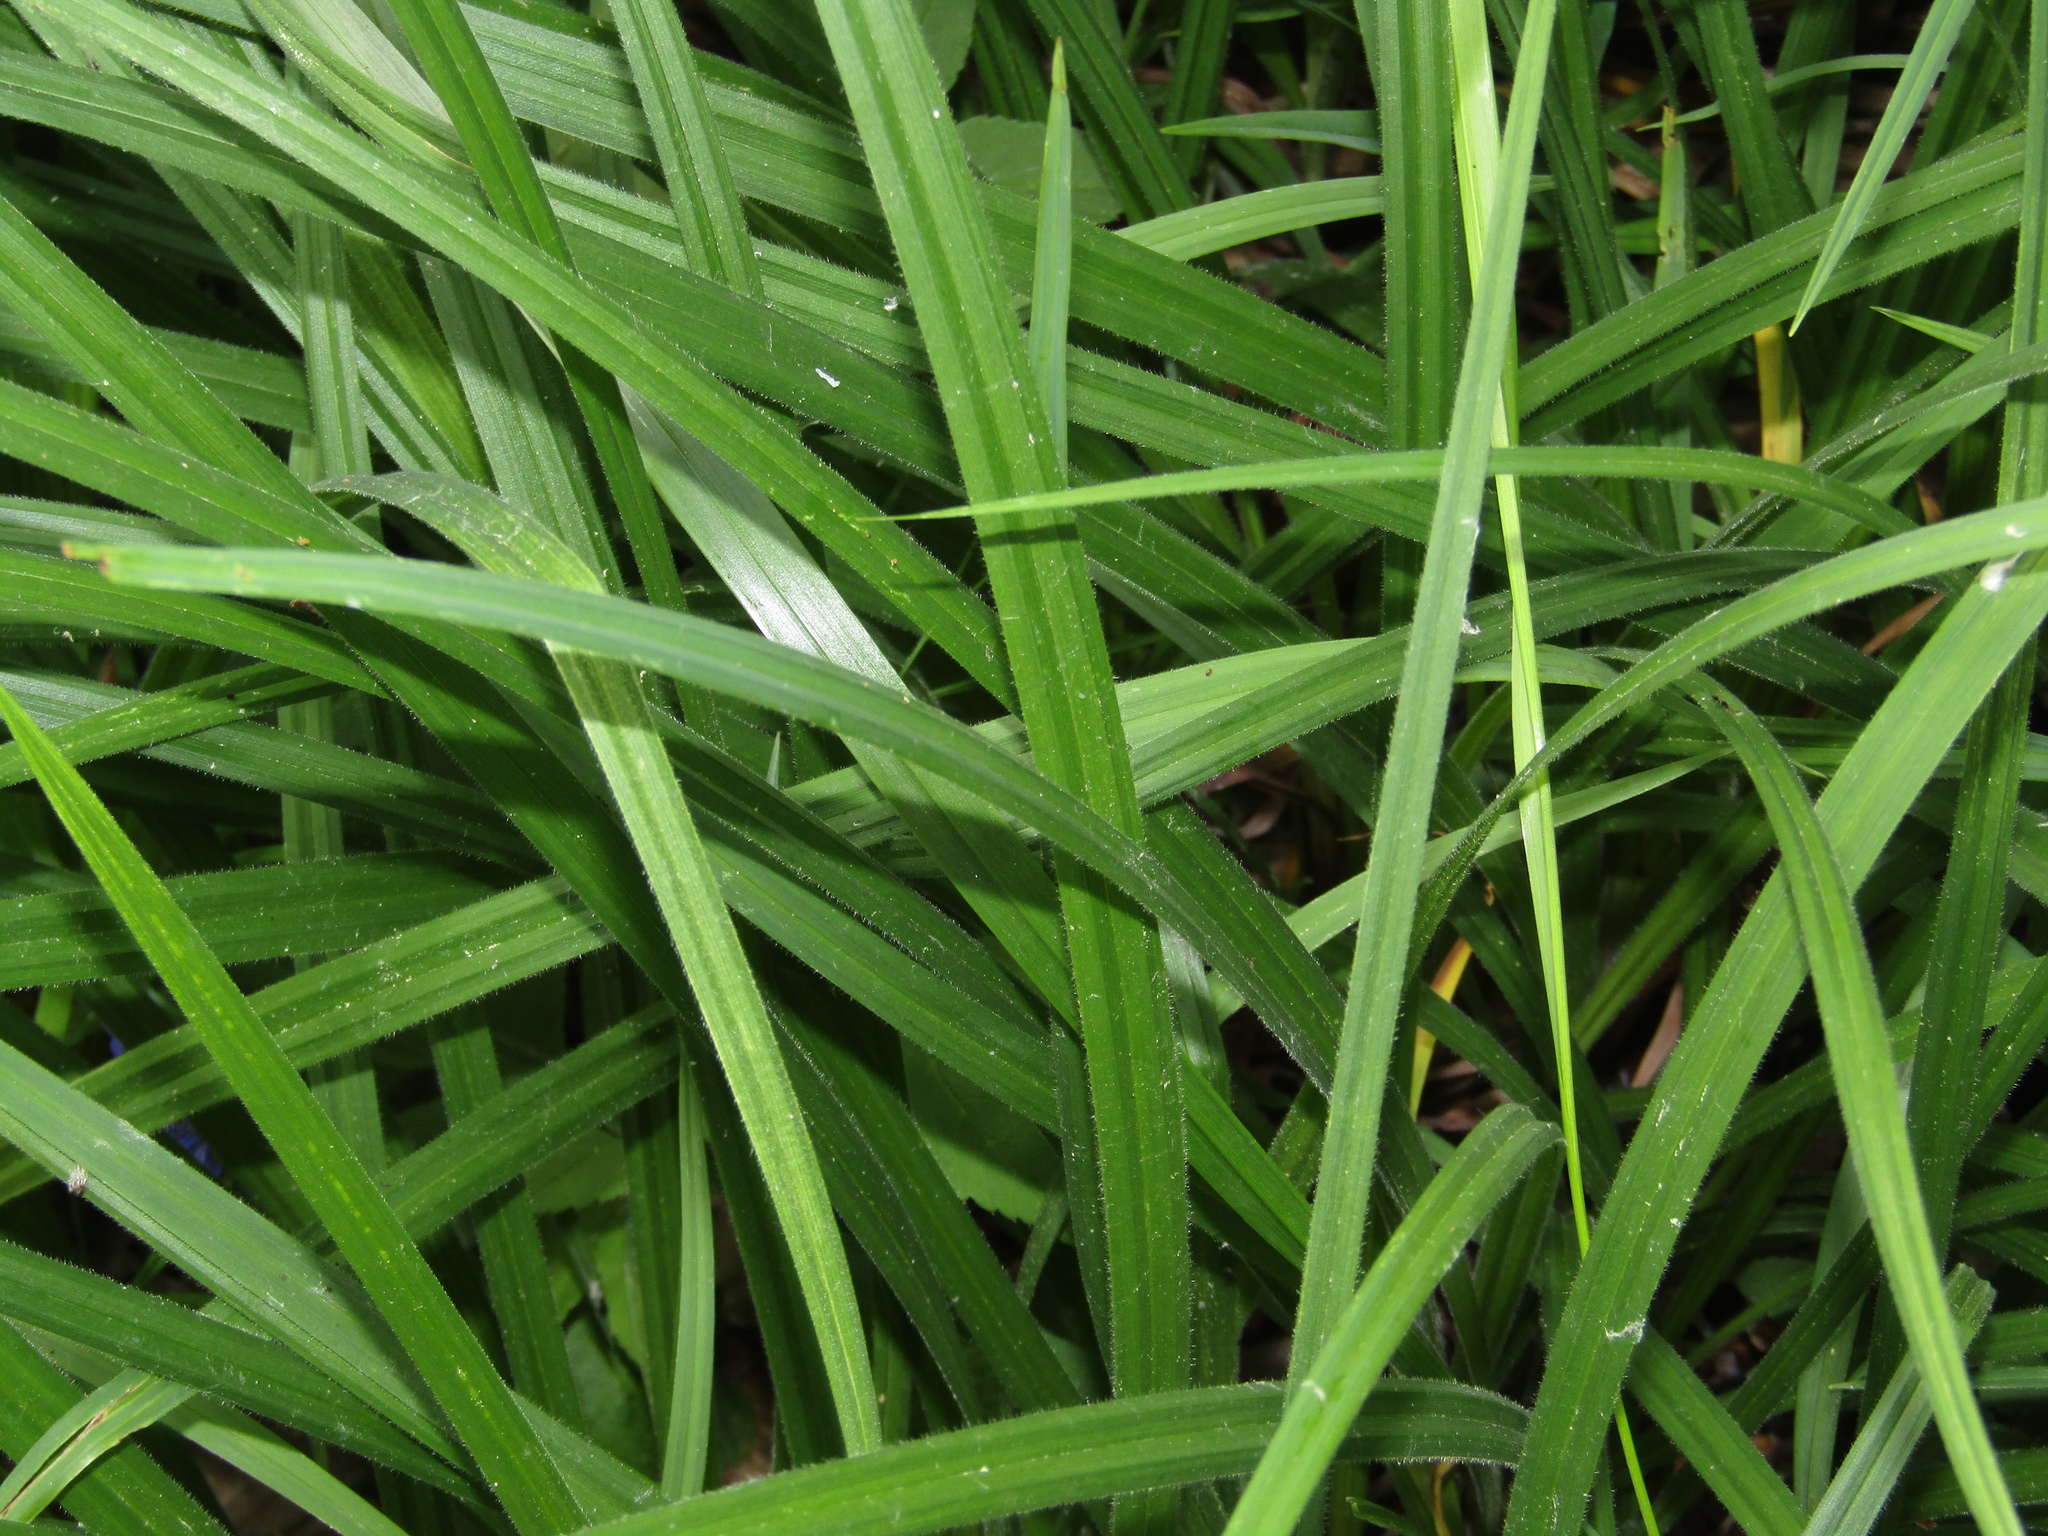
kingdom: Plantae
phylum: Tracheophyta
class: Liliopsida
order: Poales
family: Cyperaceae
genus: Carex
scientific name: Carex pilosa
